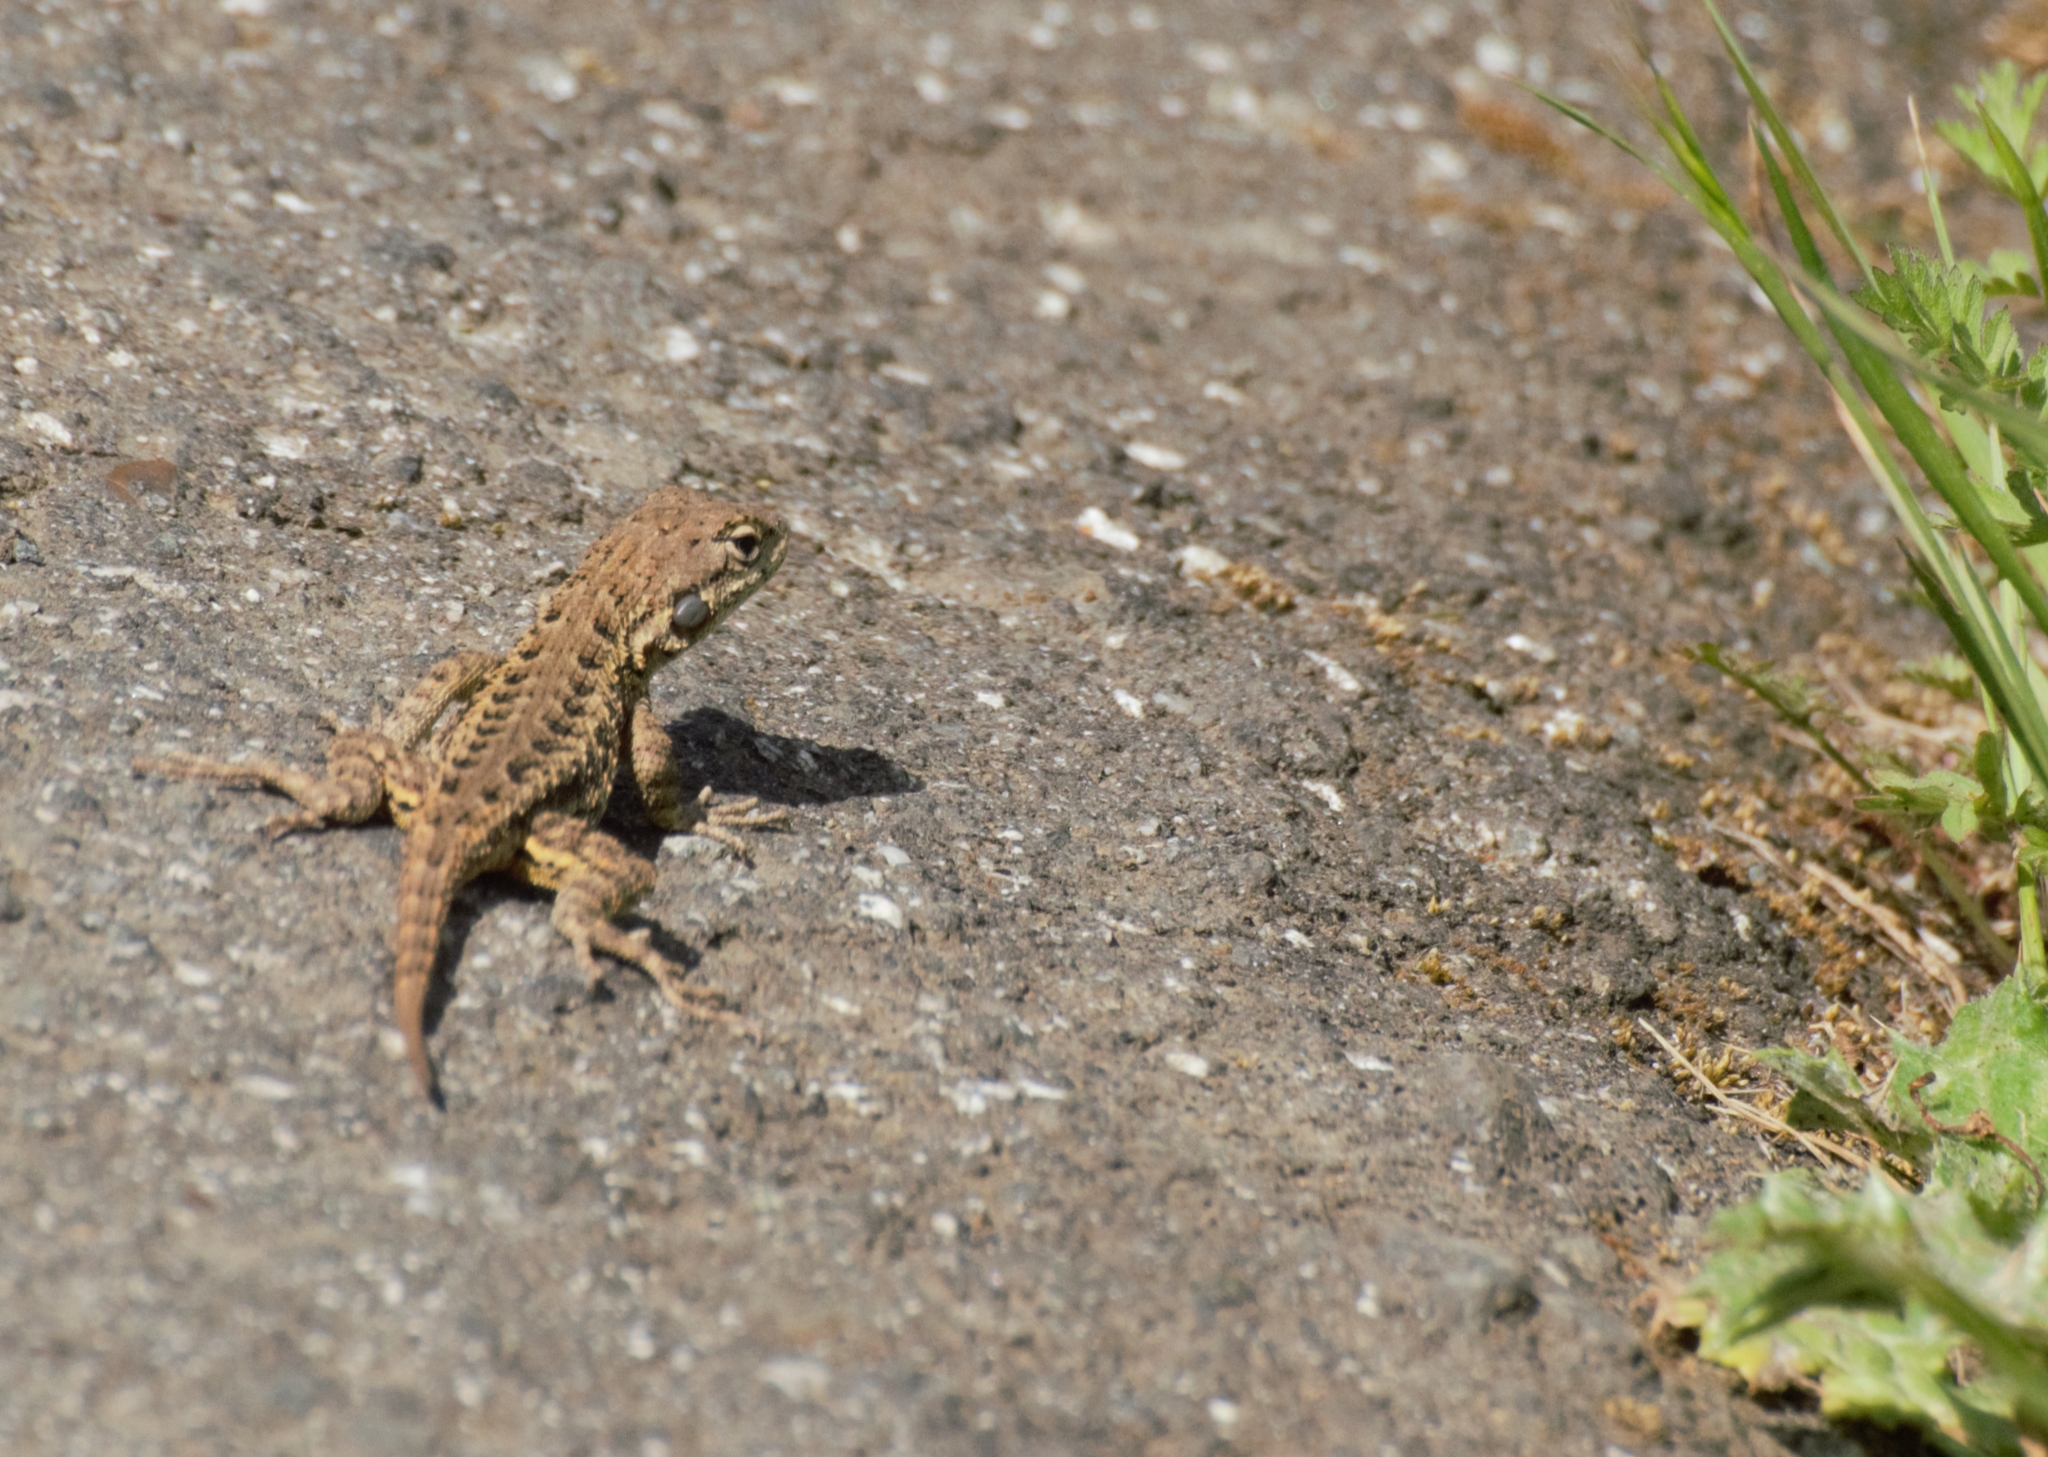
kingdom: Animalia
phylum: Chordata
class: Squamata
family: Phrynosomatidae
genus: Sceloporus
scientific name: Sceloporus occidentalis
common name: Western fence lizard
